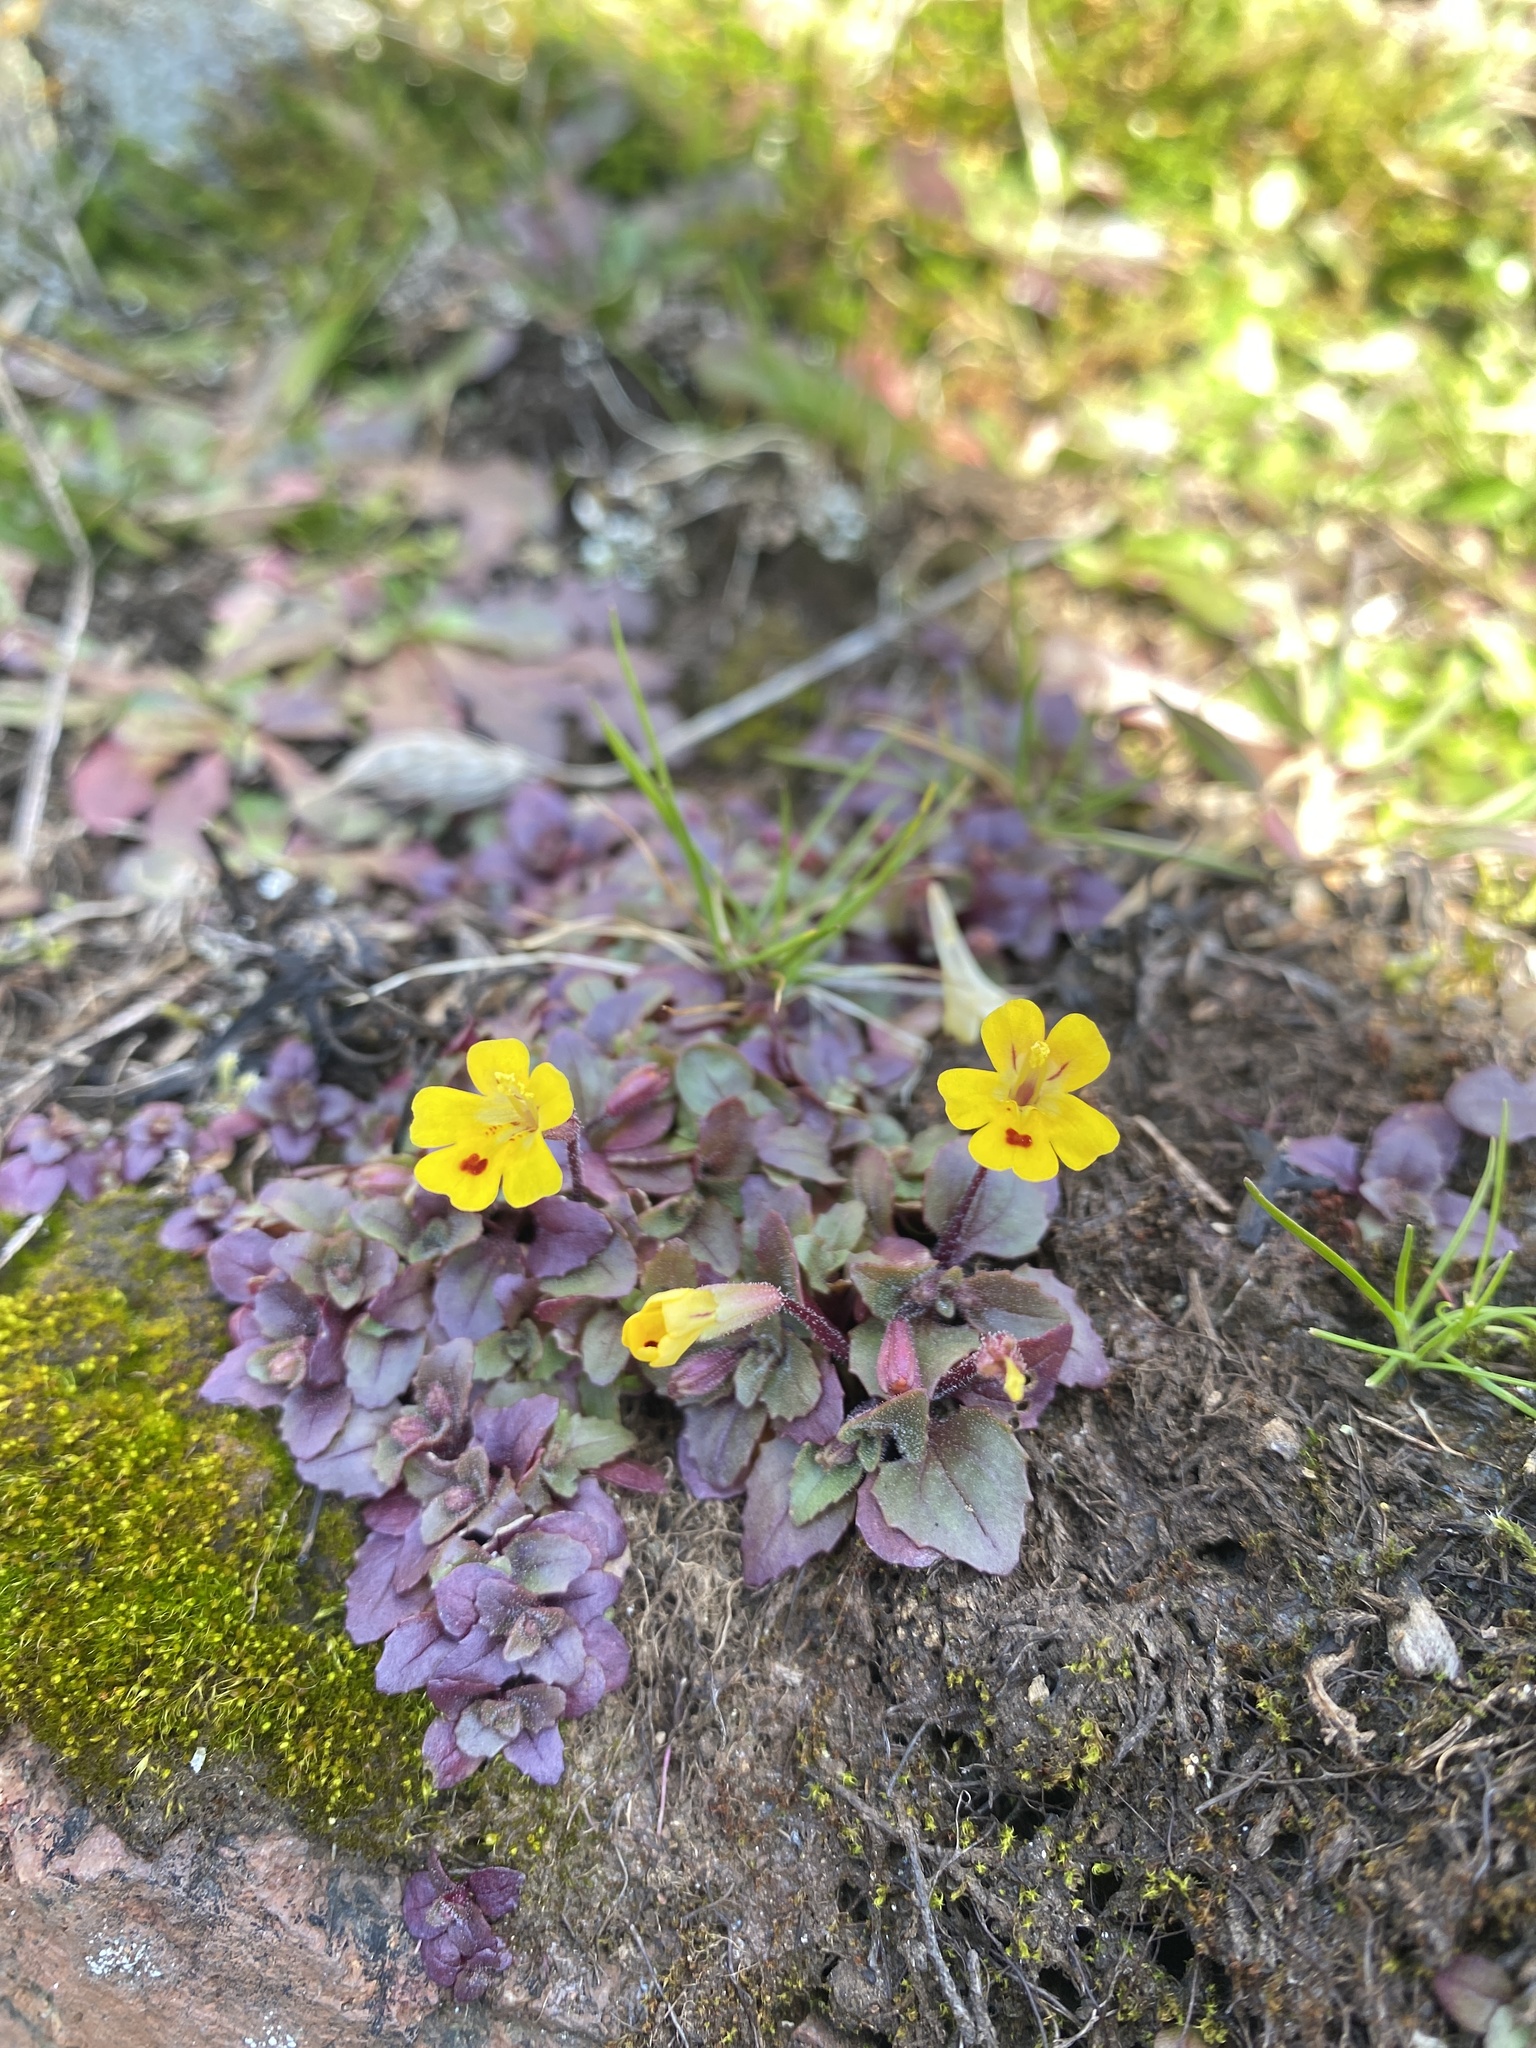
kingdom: Plantae
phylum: Tracheophyta
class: Magnoliopsida
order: Lamiales
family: Phrymaceae
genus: Erythranthe
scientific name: Erythranthe alsinoides
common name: Chickweed monkeyflower
